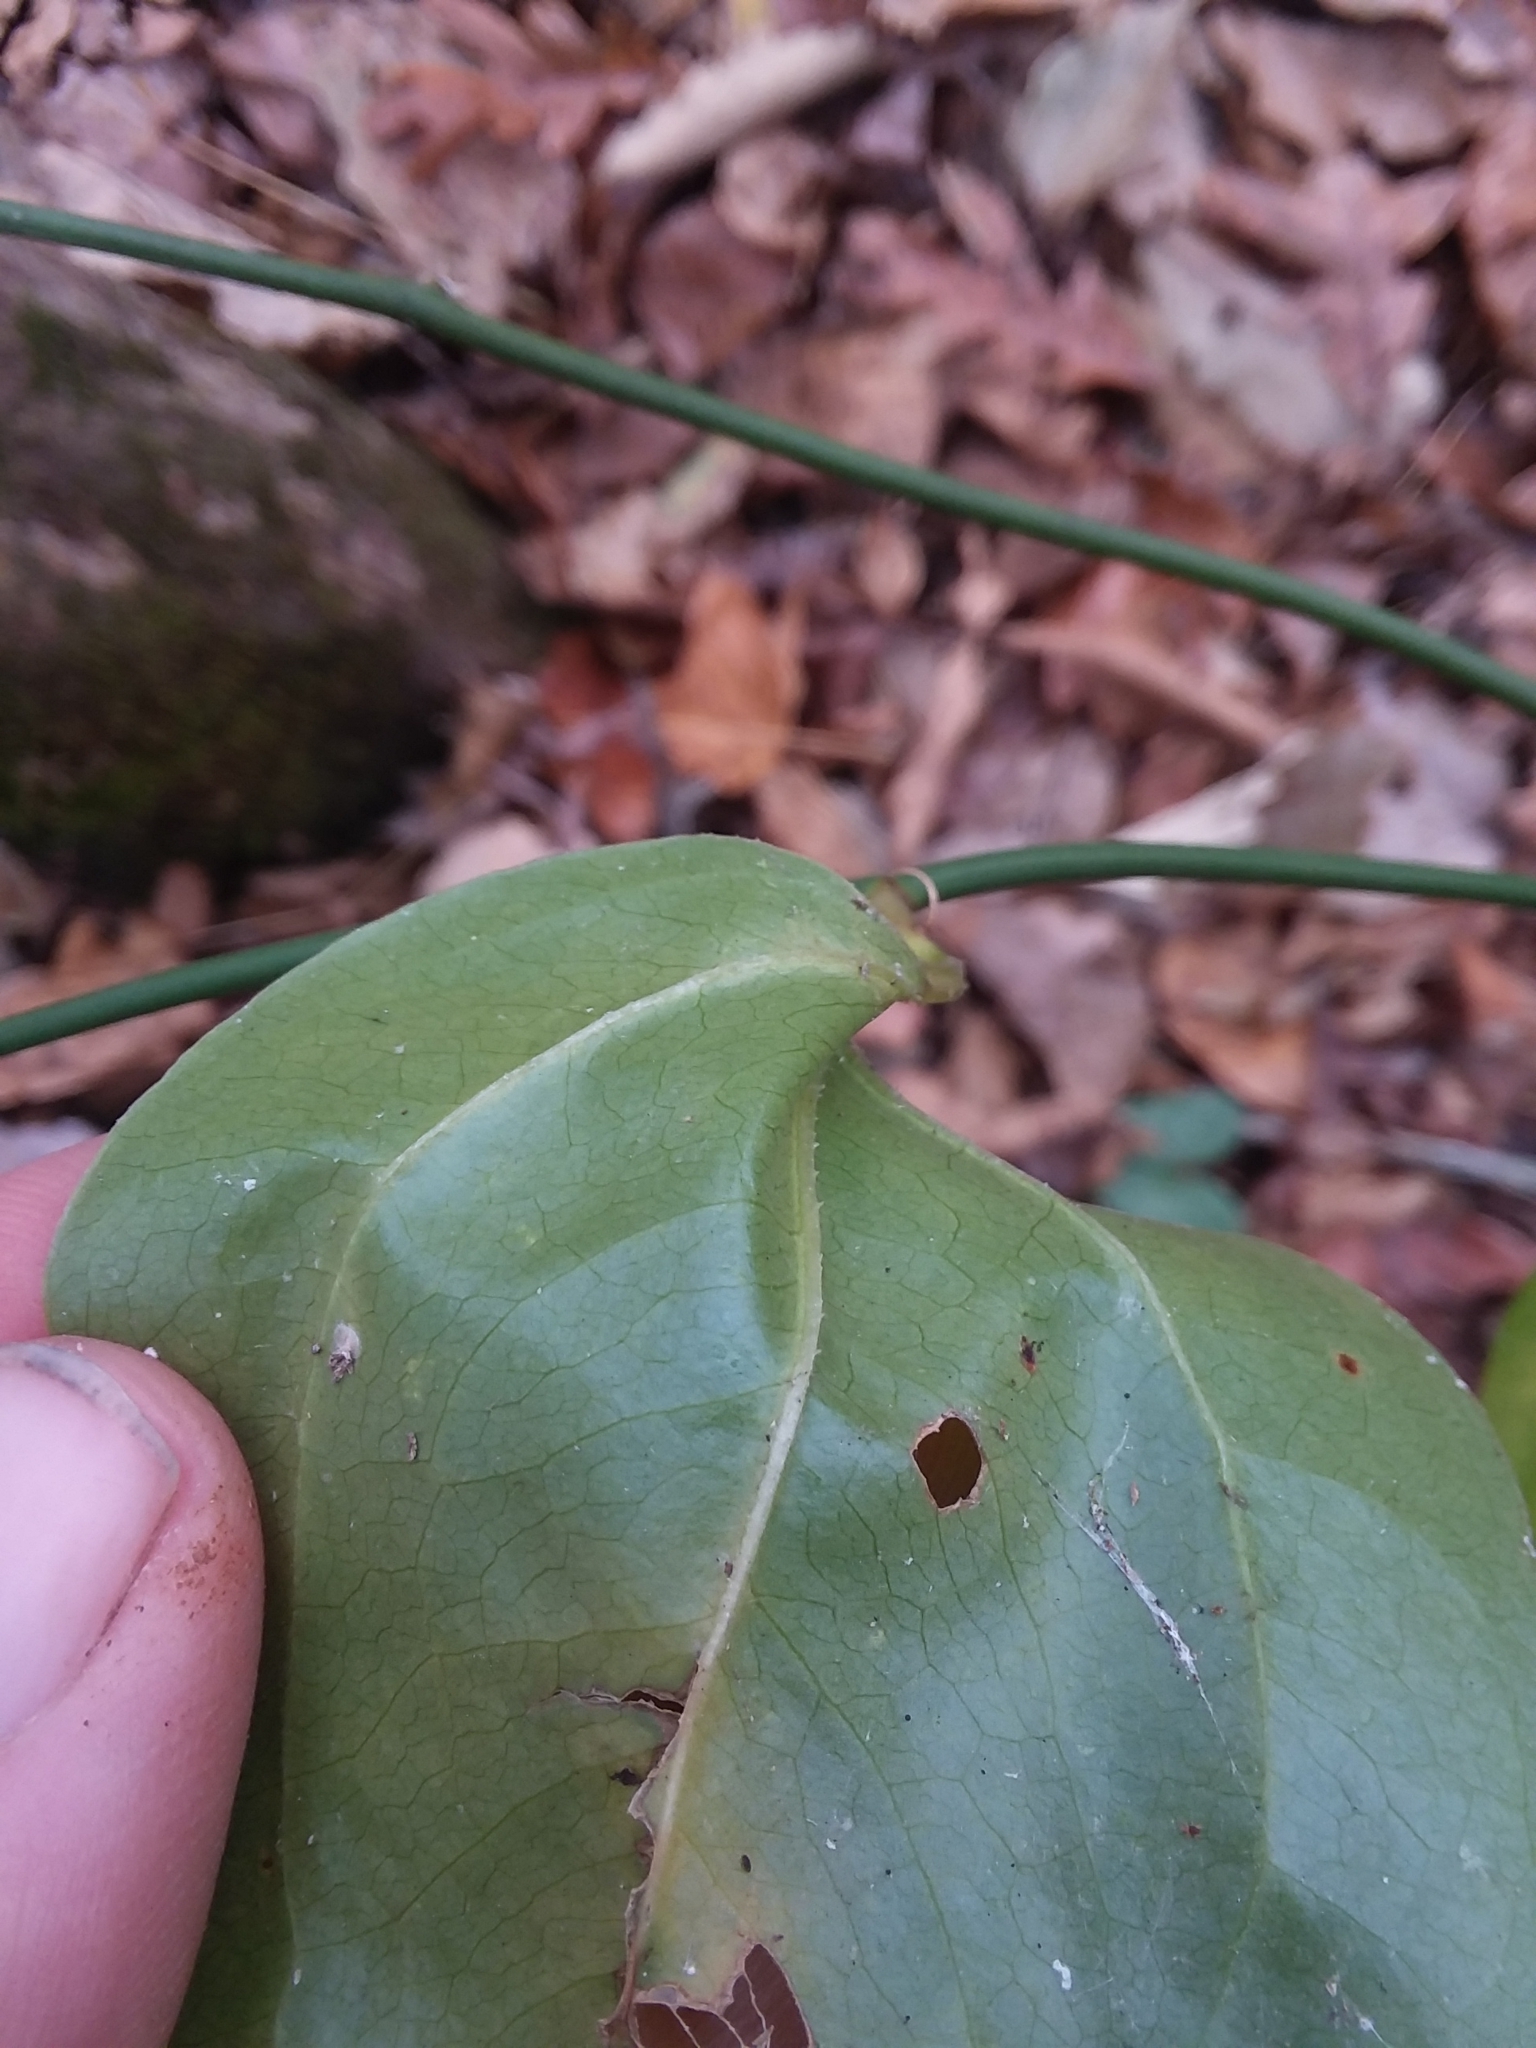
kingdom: Plantae
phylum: Tracheophyta
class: Liliopsida
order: Liliales
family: Smilacaceae
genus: Smilax
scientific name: Smilax rotundifolia
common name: Bullbriar
